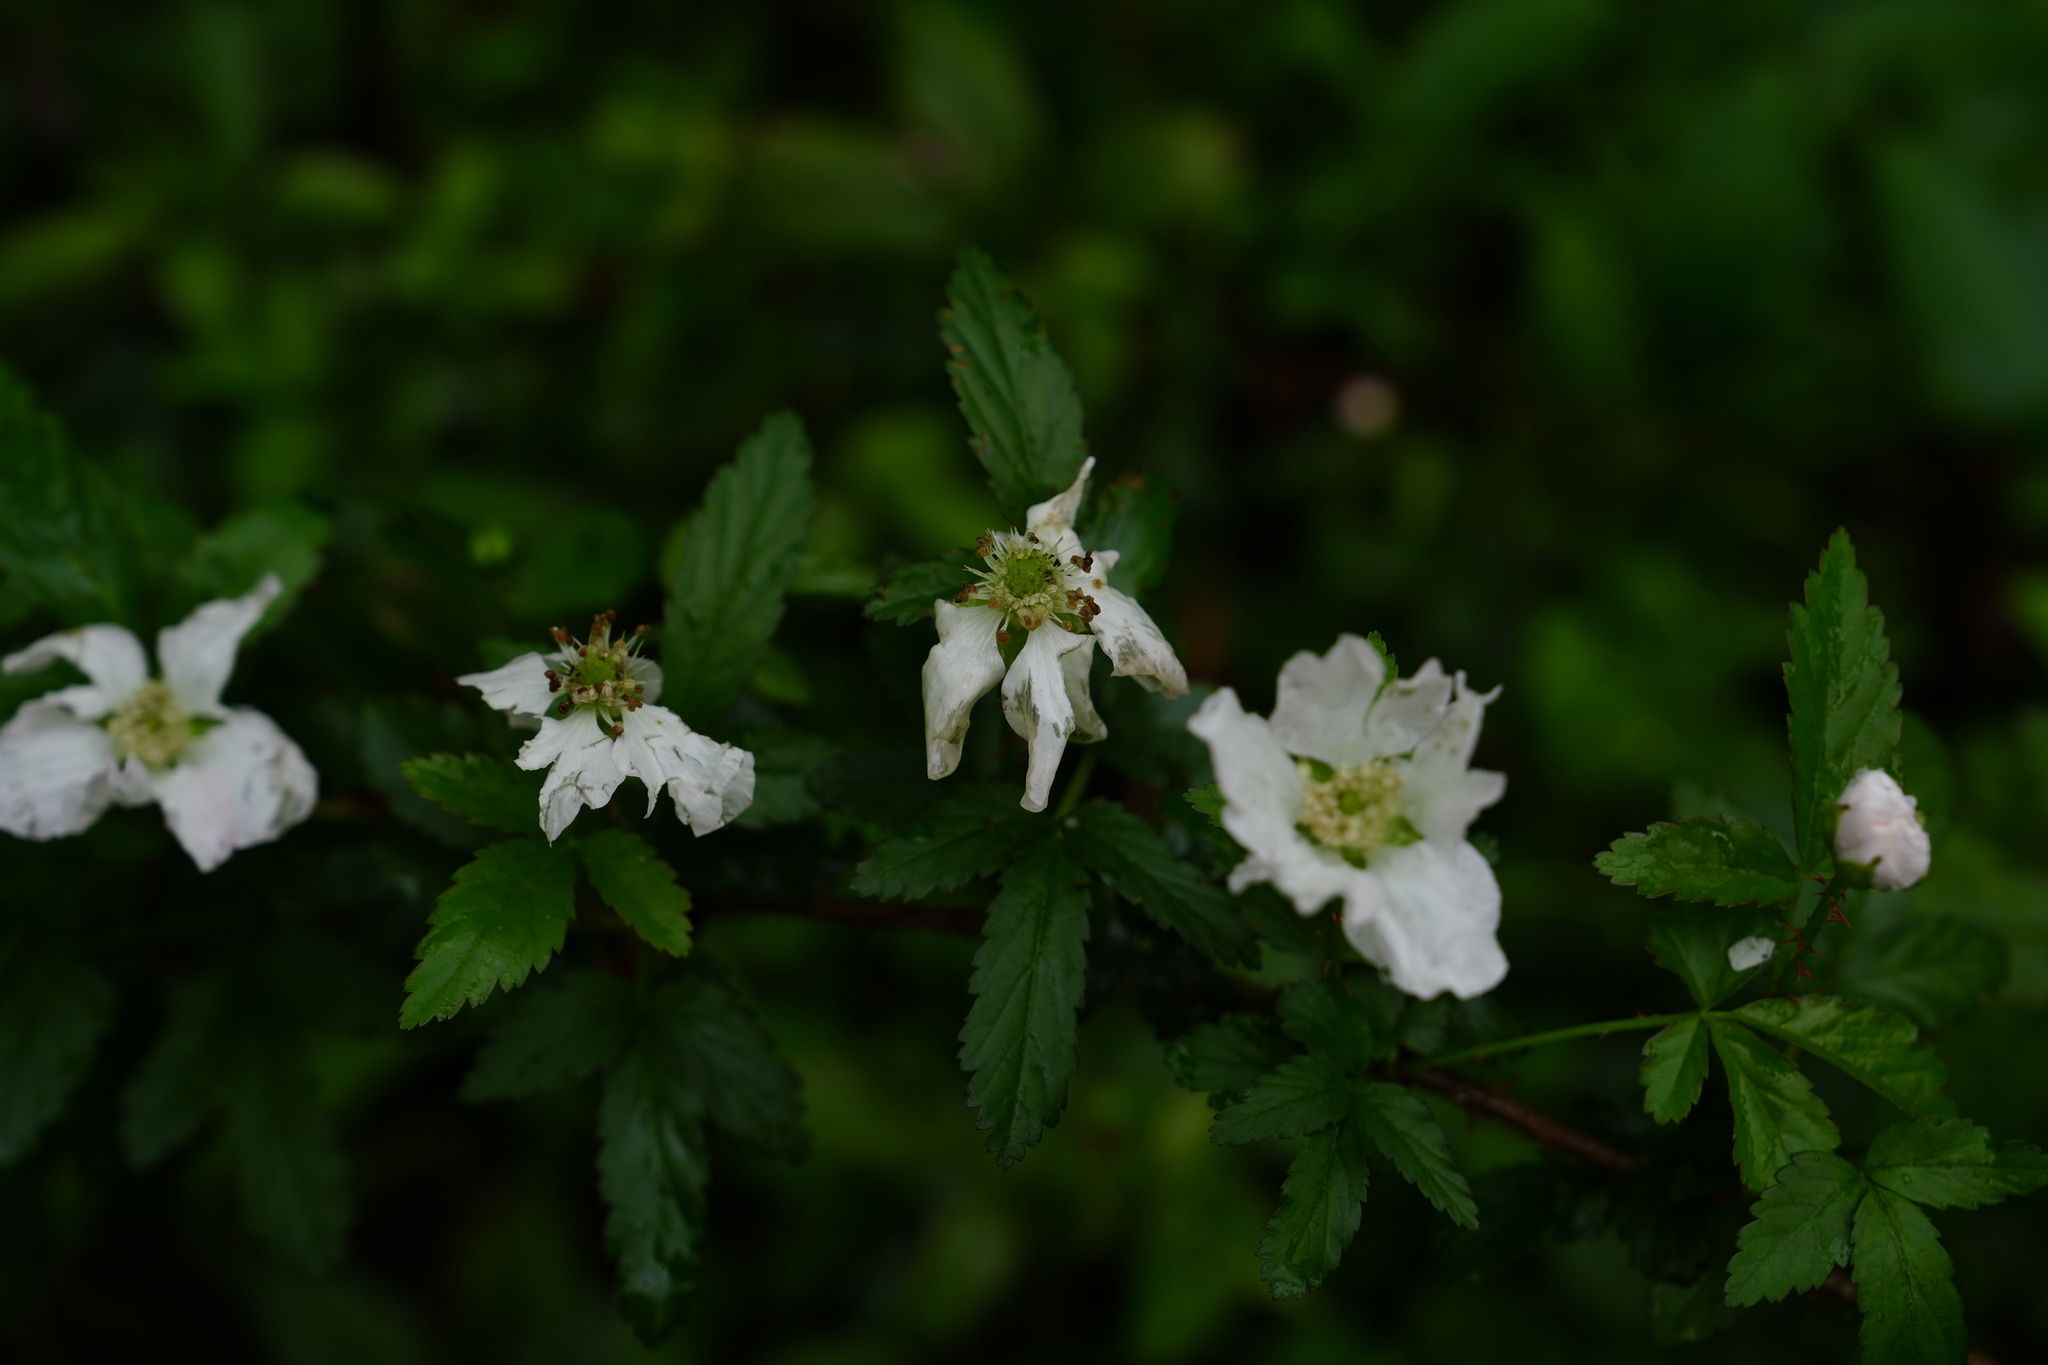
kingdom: Plantae
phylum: Tracheophyta
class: Magnoliopsida
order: Rosales
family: Rosaceae
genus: Rubus
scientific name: Rubus trivialis
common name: Southern dewberry
